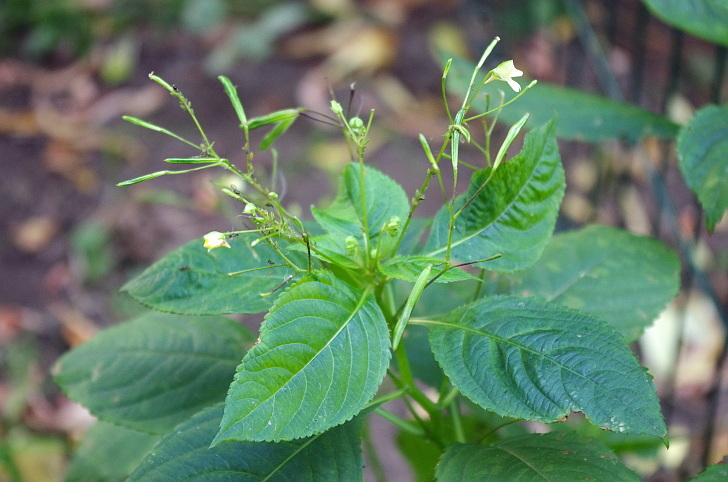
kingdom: Plantae
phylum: Tracheophyta
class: Magnoliopsida
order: Ericales
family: Balsaminaceae
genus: Impatiens
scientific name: Impatiens parviflora
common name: Small balsam
